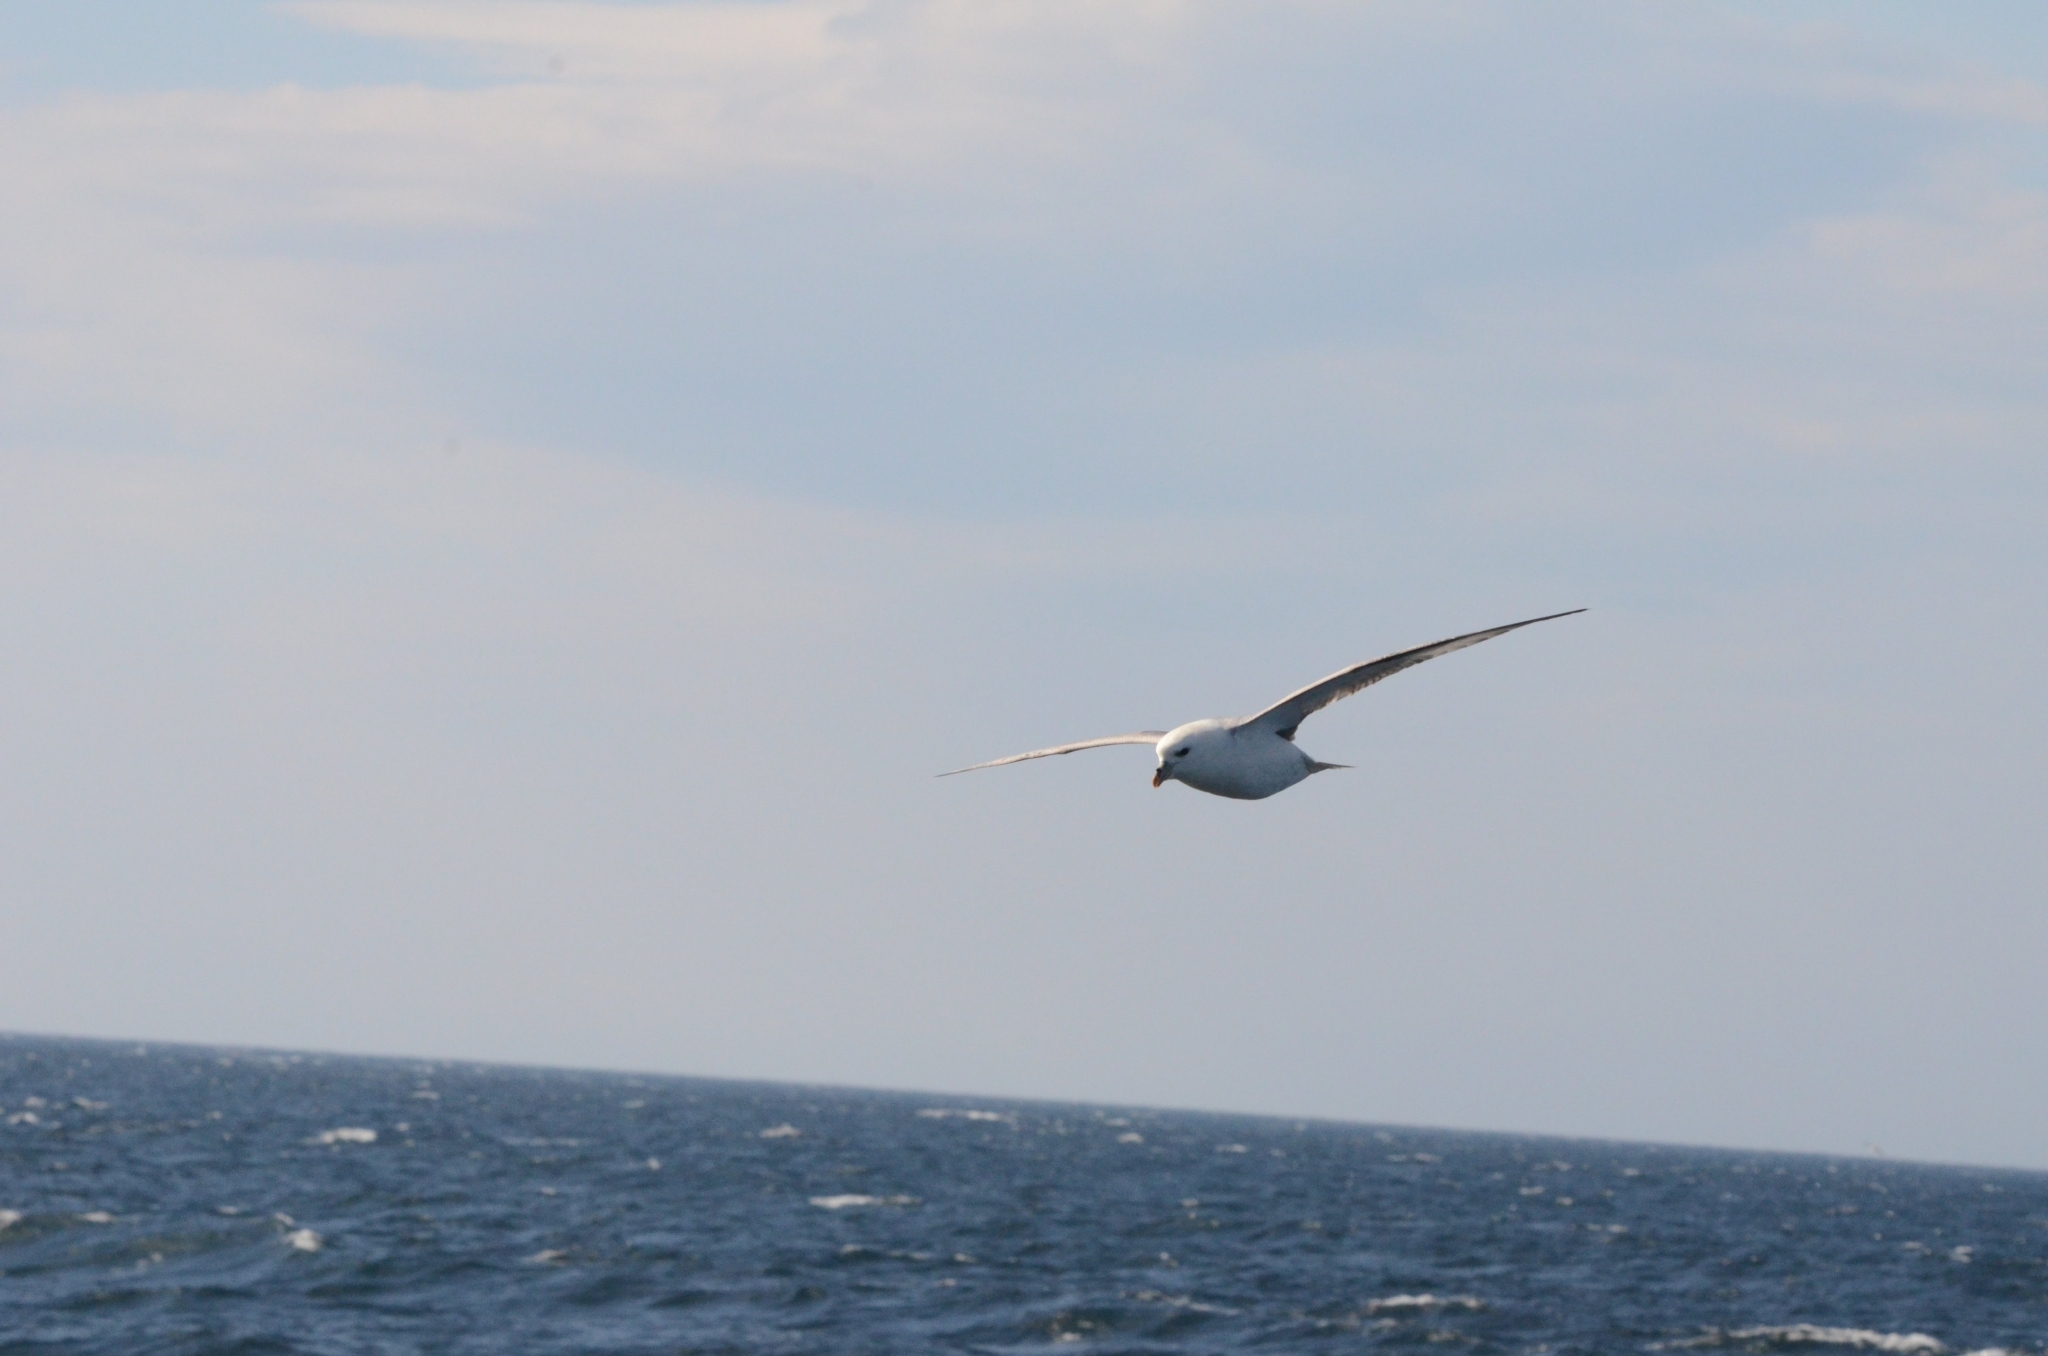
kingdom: Animalia
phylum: Chordata
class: Aves
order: Procellariiformes
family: Procellariidae
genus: Fulmarus
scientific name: Fulmarus glacialis
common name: Northern fulmar
